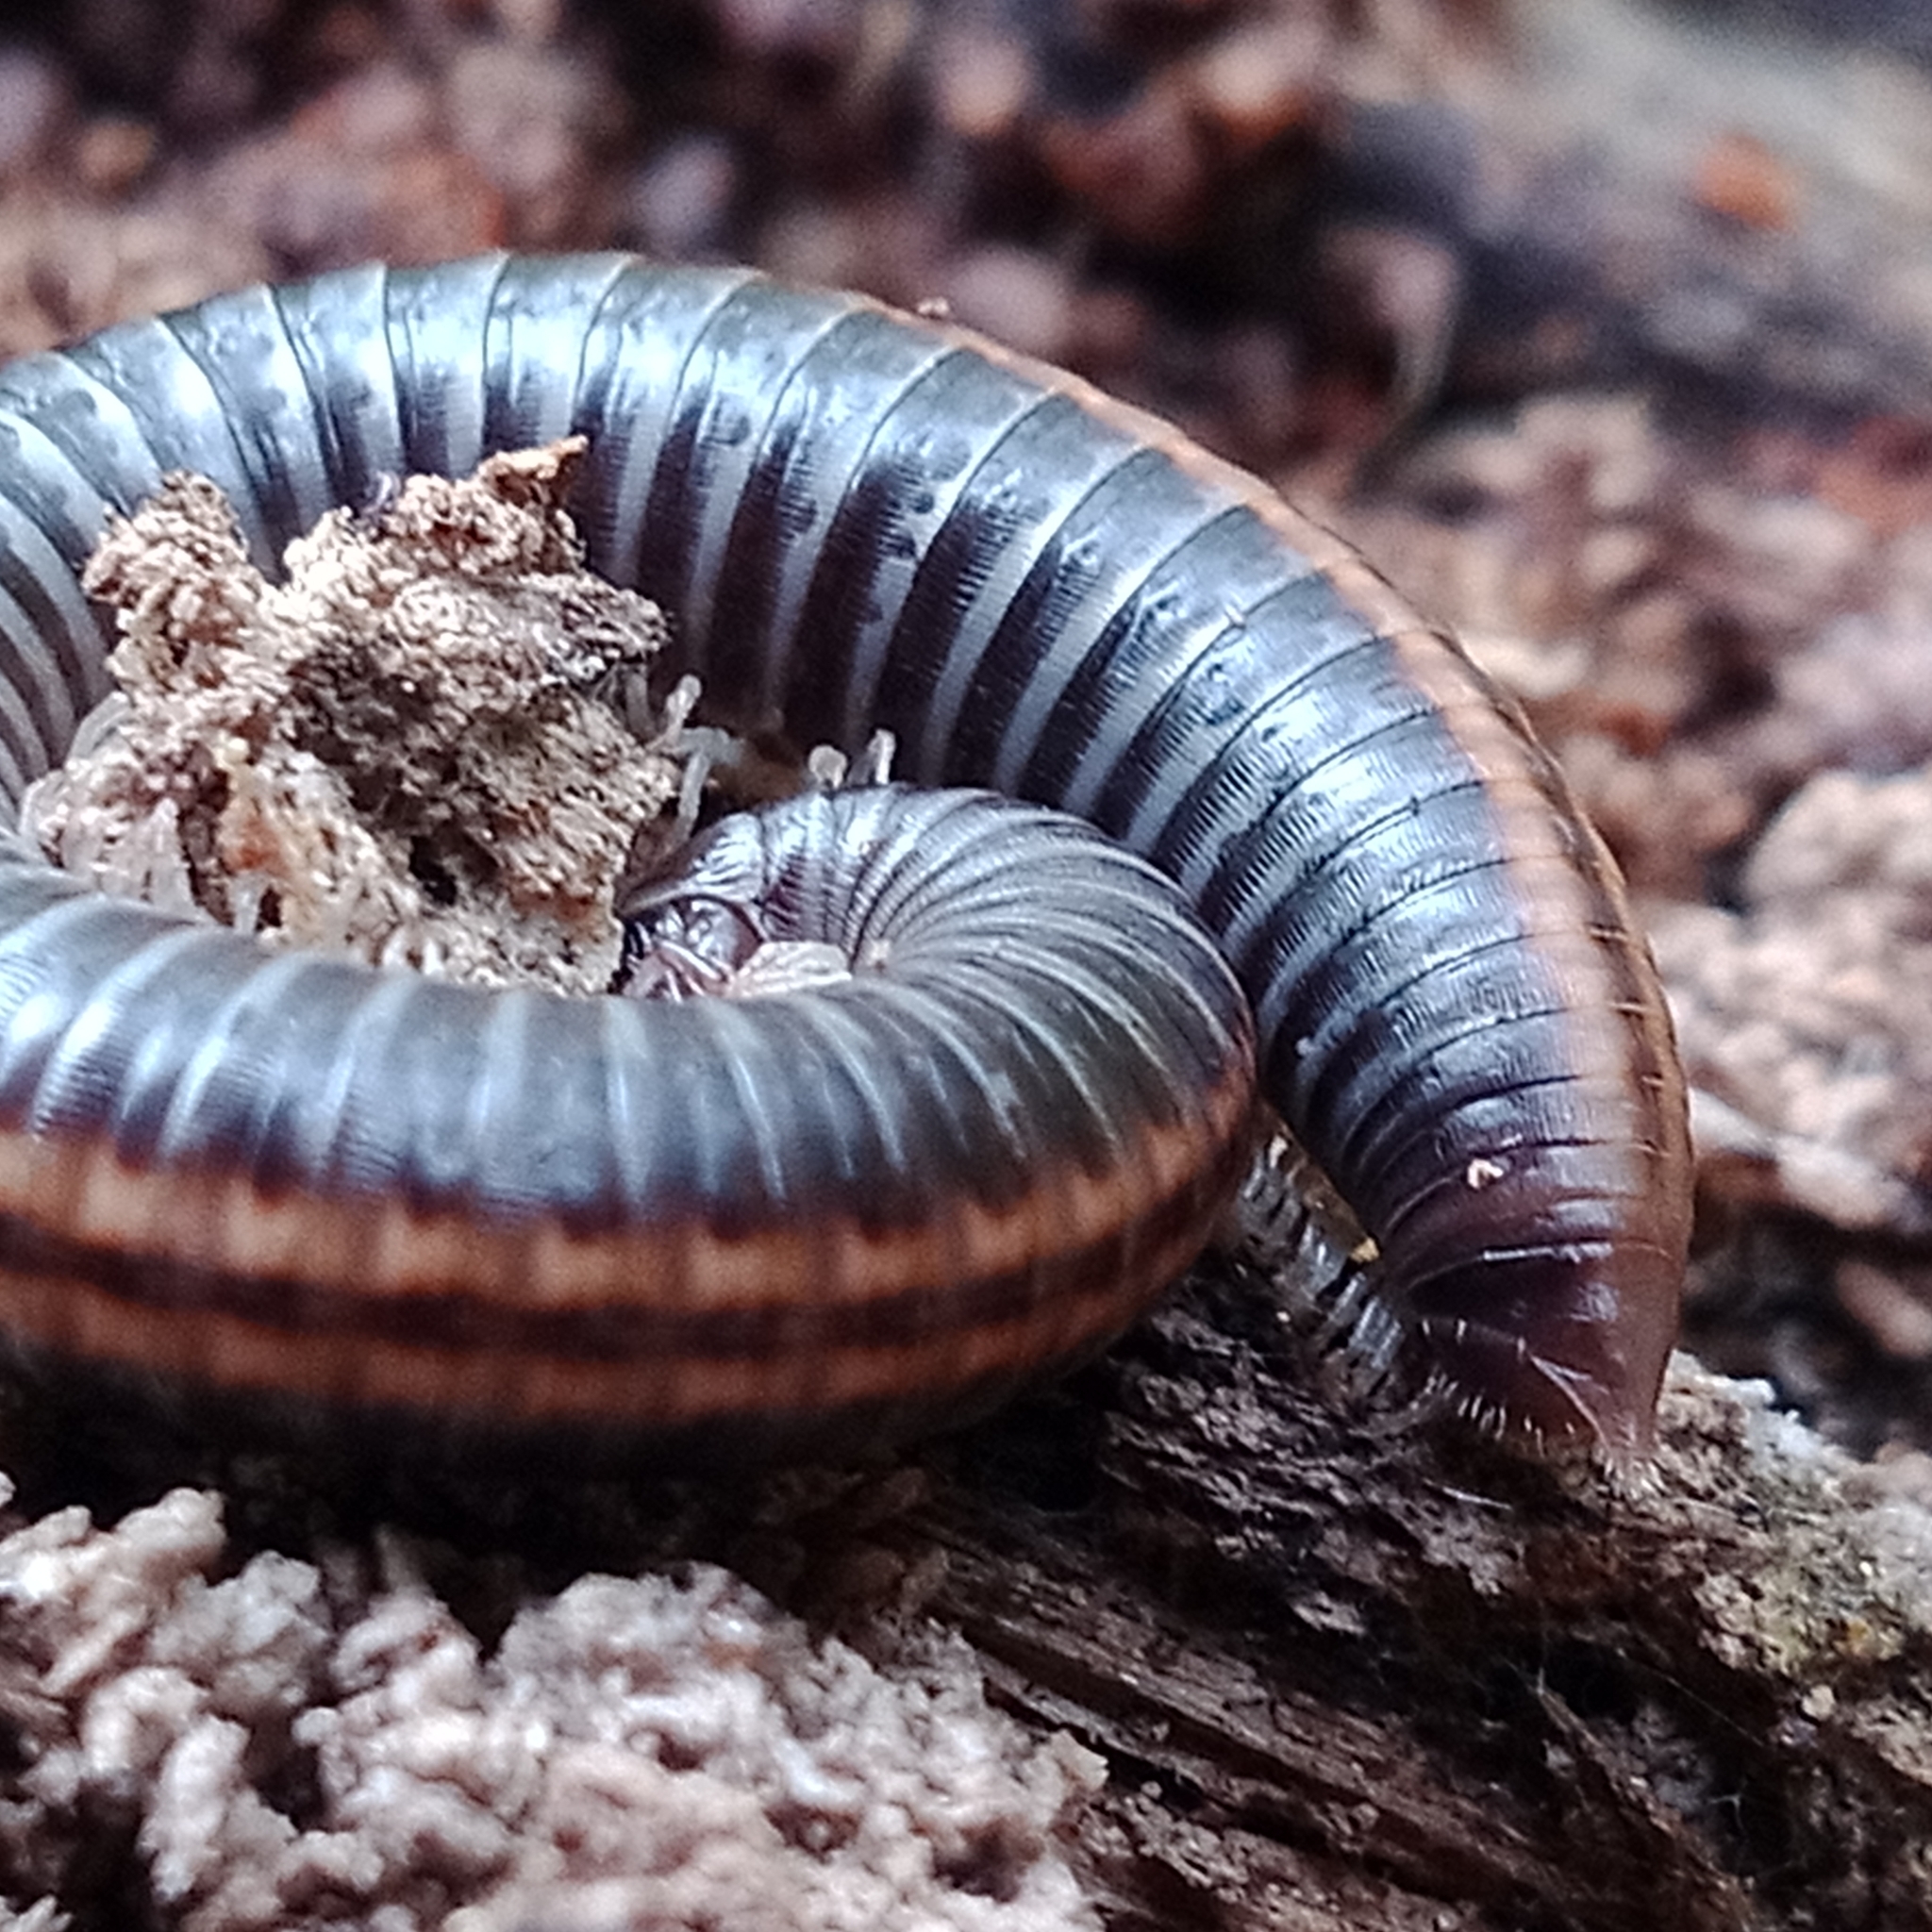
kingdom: Animalia
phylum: Arthropoda
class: Diplopoda
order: Julida
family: Julidae
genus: Ommatoiulus
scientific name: Ommatoiulus sabulosus
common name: Striped millipede
